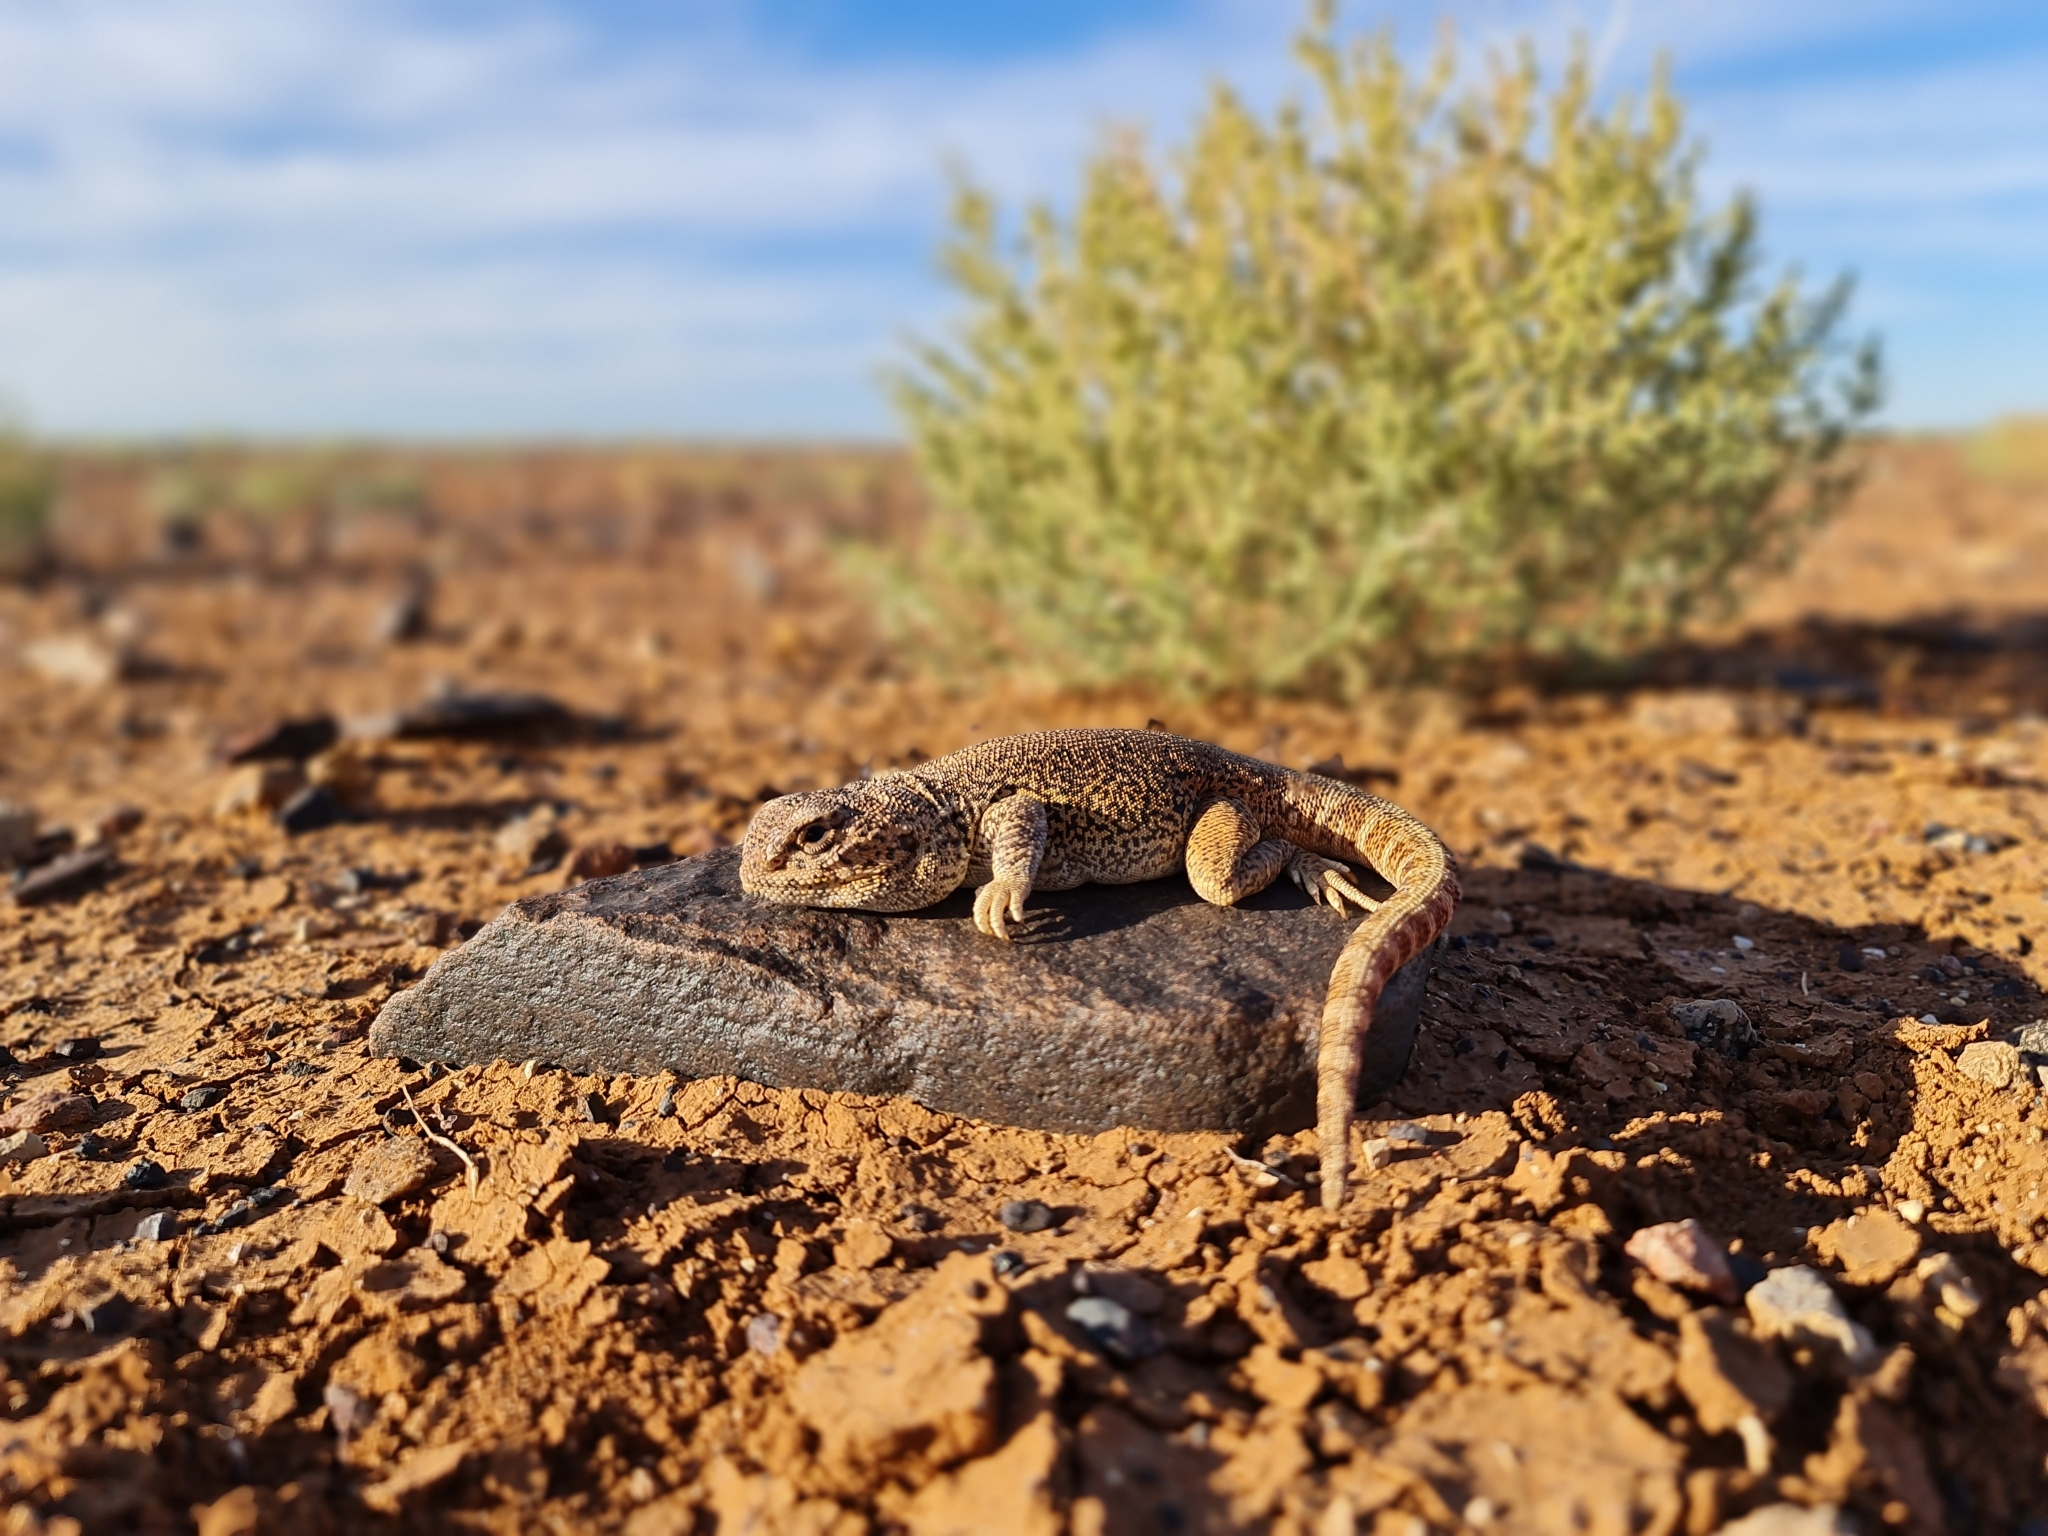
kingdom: Animalia
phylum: Chordata
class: Squamata
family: Agamidae
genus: Ctenophorus
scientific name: Ctenophorus gibba
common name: Bulldust ground-dragon
